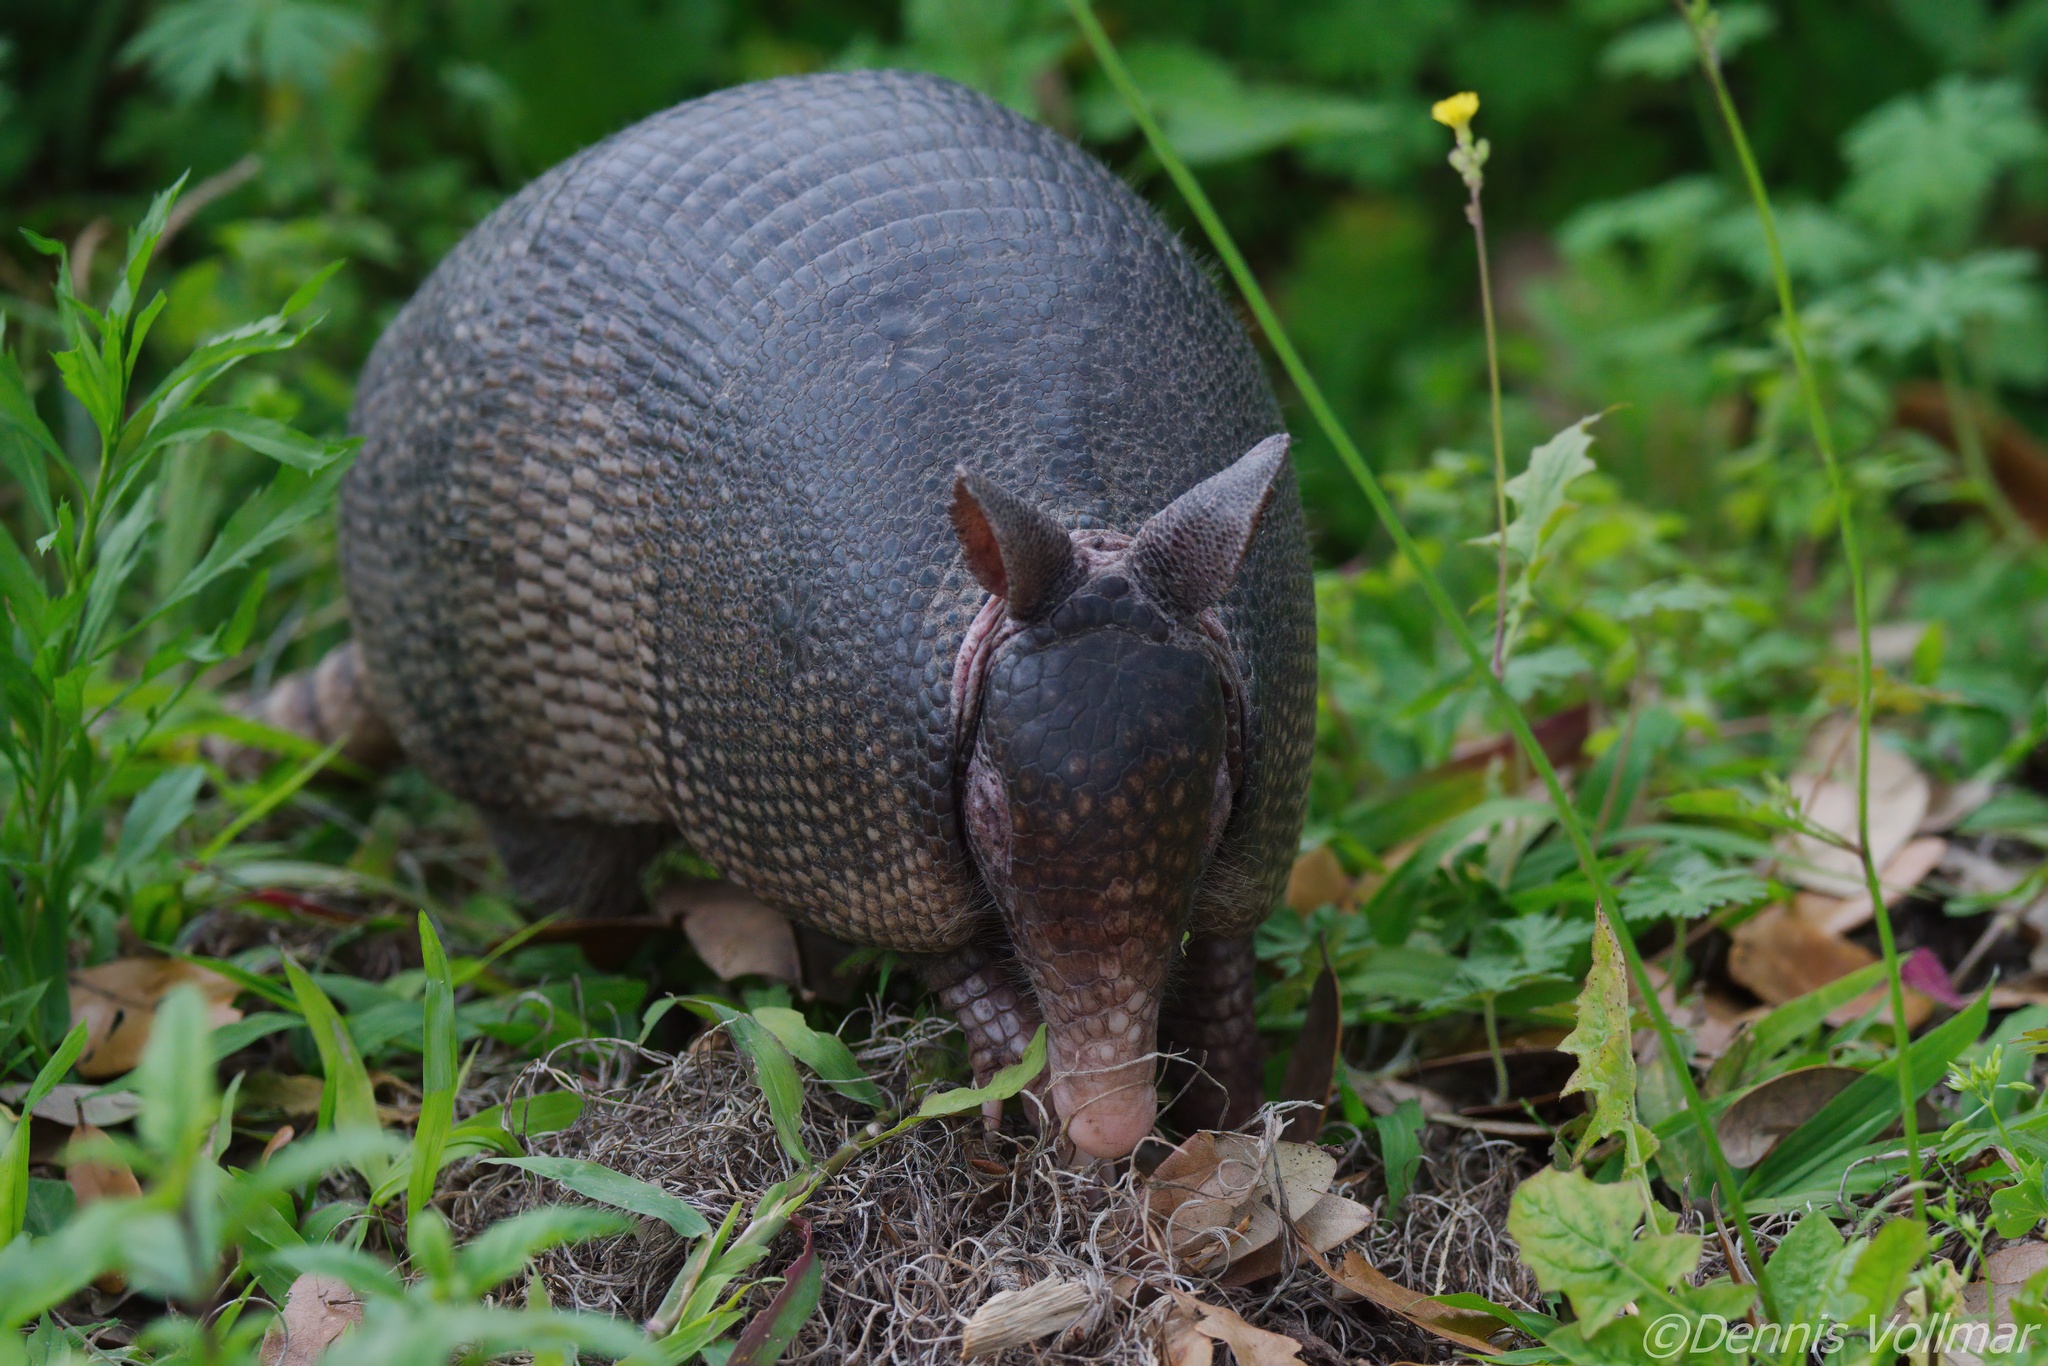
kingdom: Animalia
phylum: Chordata
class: Mammalia
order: Cingulata
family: Dasypodidae
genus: Dasypus
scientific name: Dasypus novemcinctus
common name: Nine-banded armadillo
